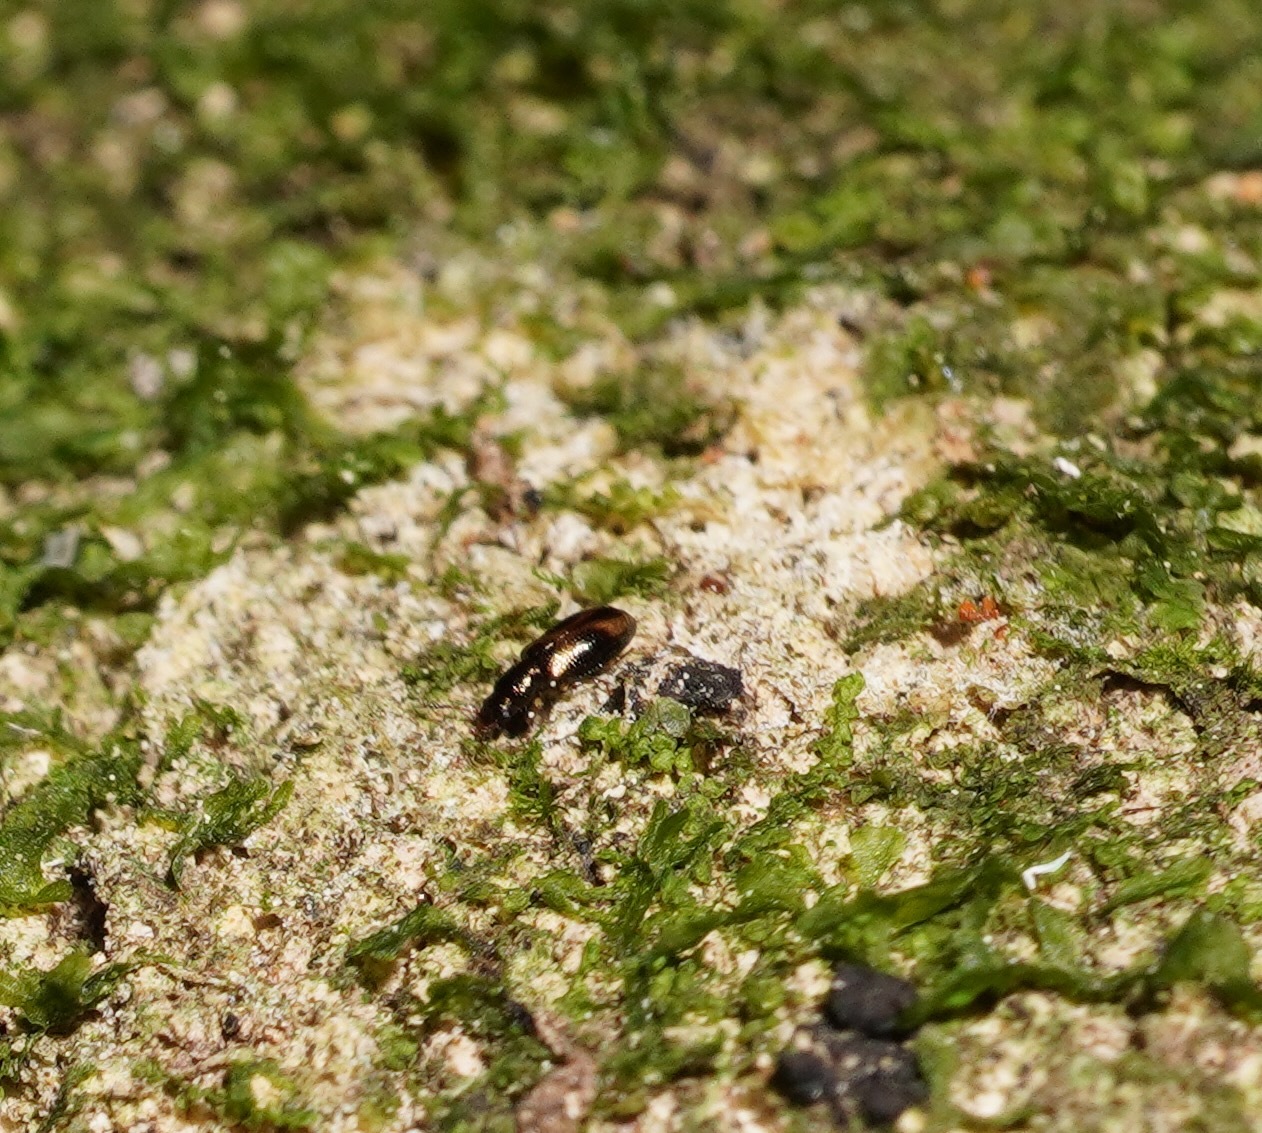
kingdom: Animalia
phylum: Arthropoda
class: Insecta
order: Coleoptera
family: Salpingidae
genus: Salpingus
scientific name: Salpingus
